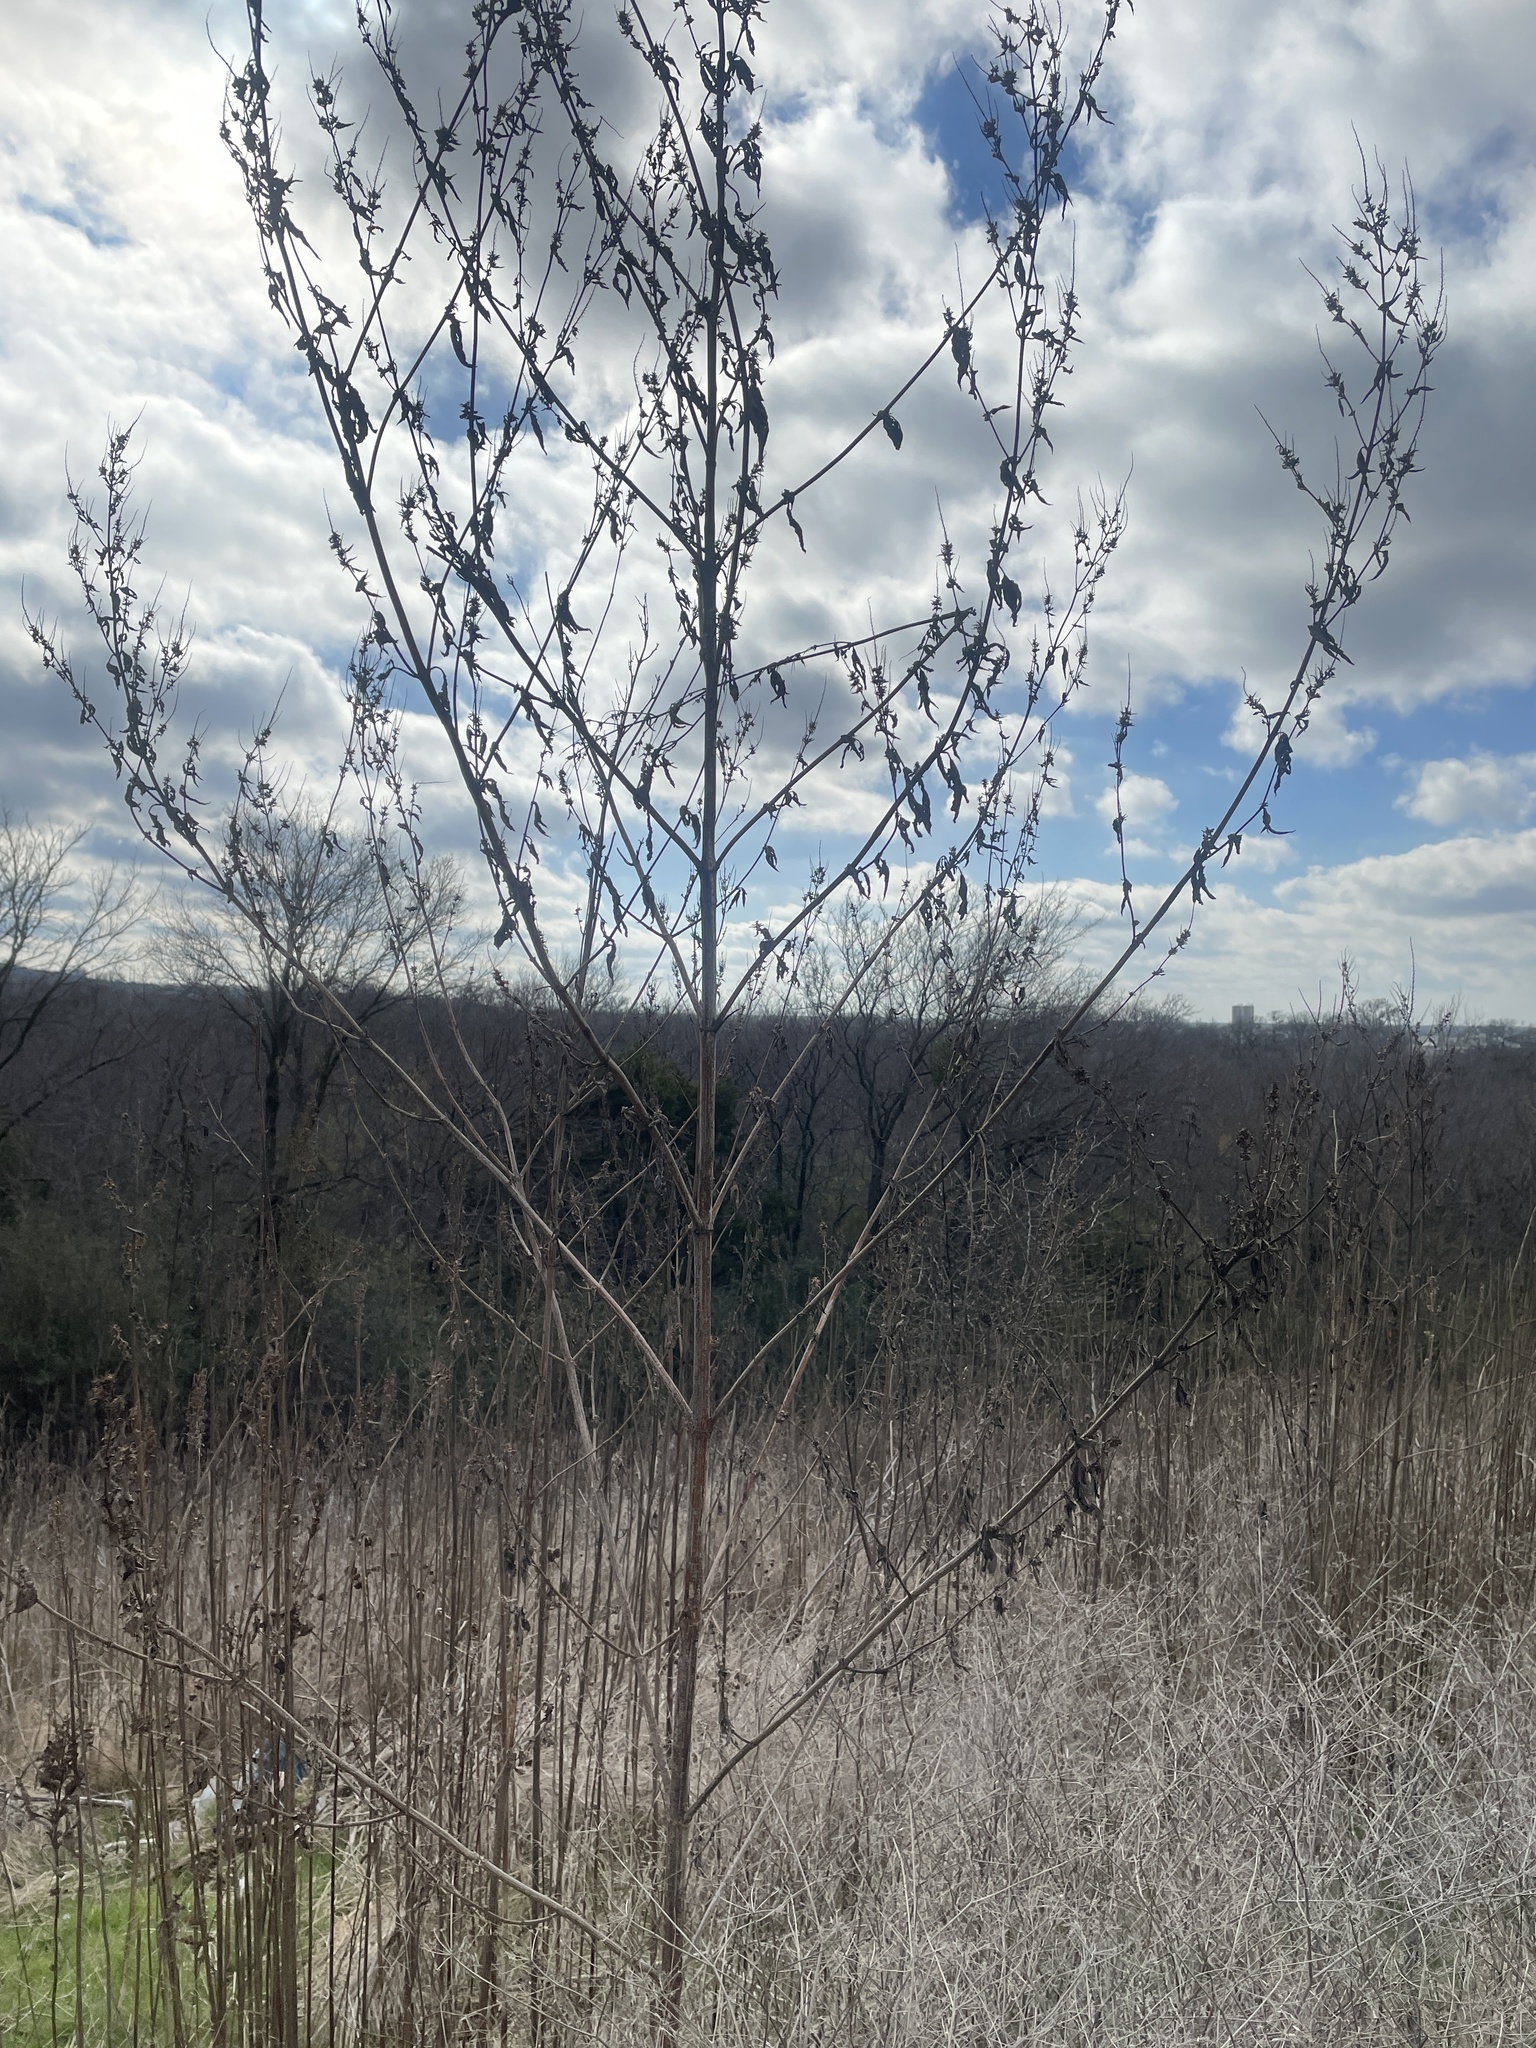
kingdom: Plantae
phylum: Tracheophyta
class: Magnoliopsida
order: Asterales
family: Asteraceae
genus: Ambrosia
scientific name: Ambrosia trifida
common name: Giant ragweed
